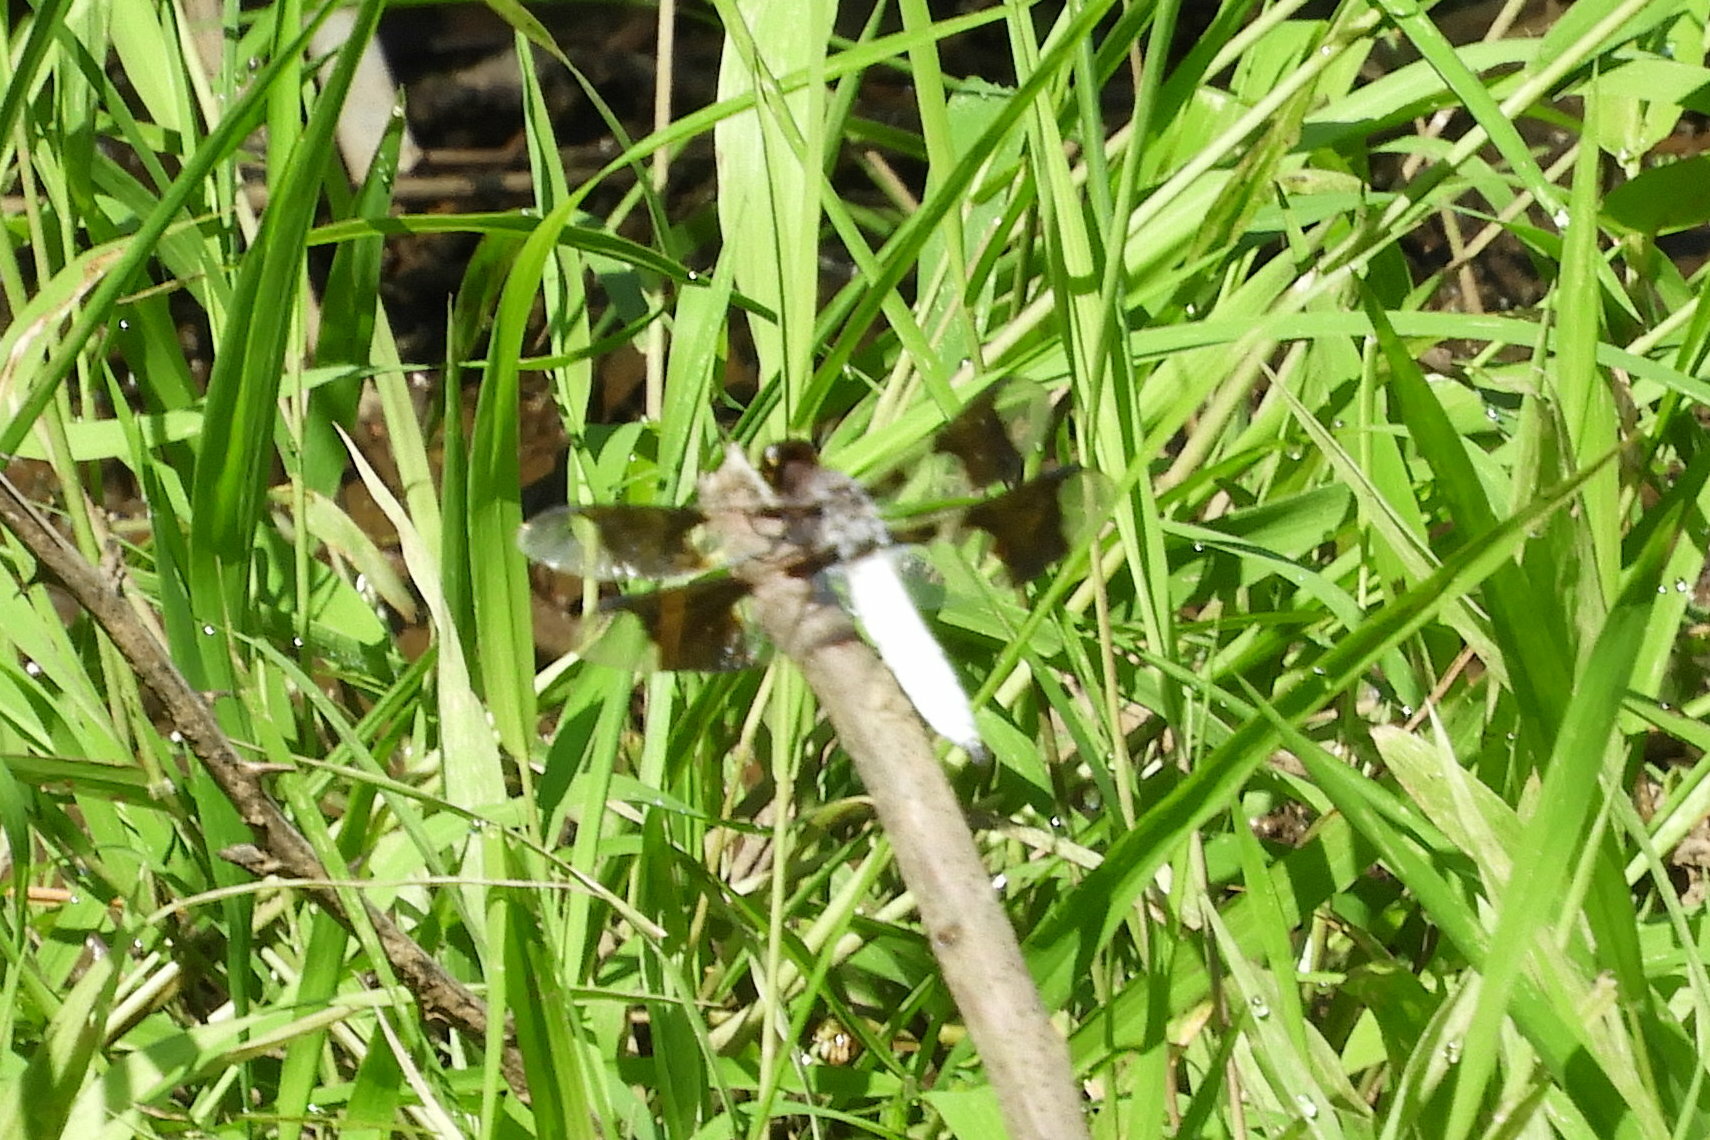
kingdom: Animalia
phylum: Arthropoda
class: Insecta
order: Odonata
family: Libellulidae
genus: Plathemis
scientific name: Plathemis lydia
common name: Common whitetail
